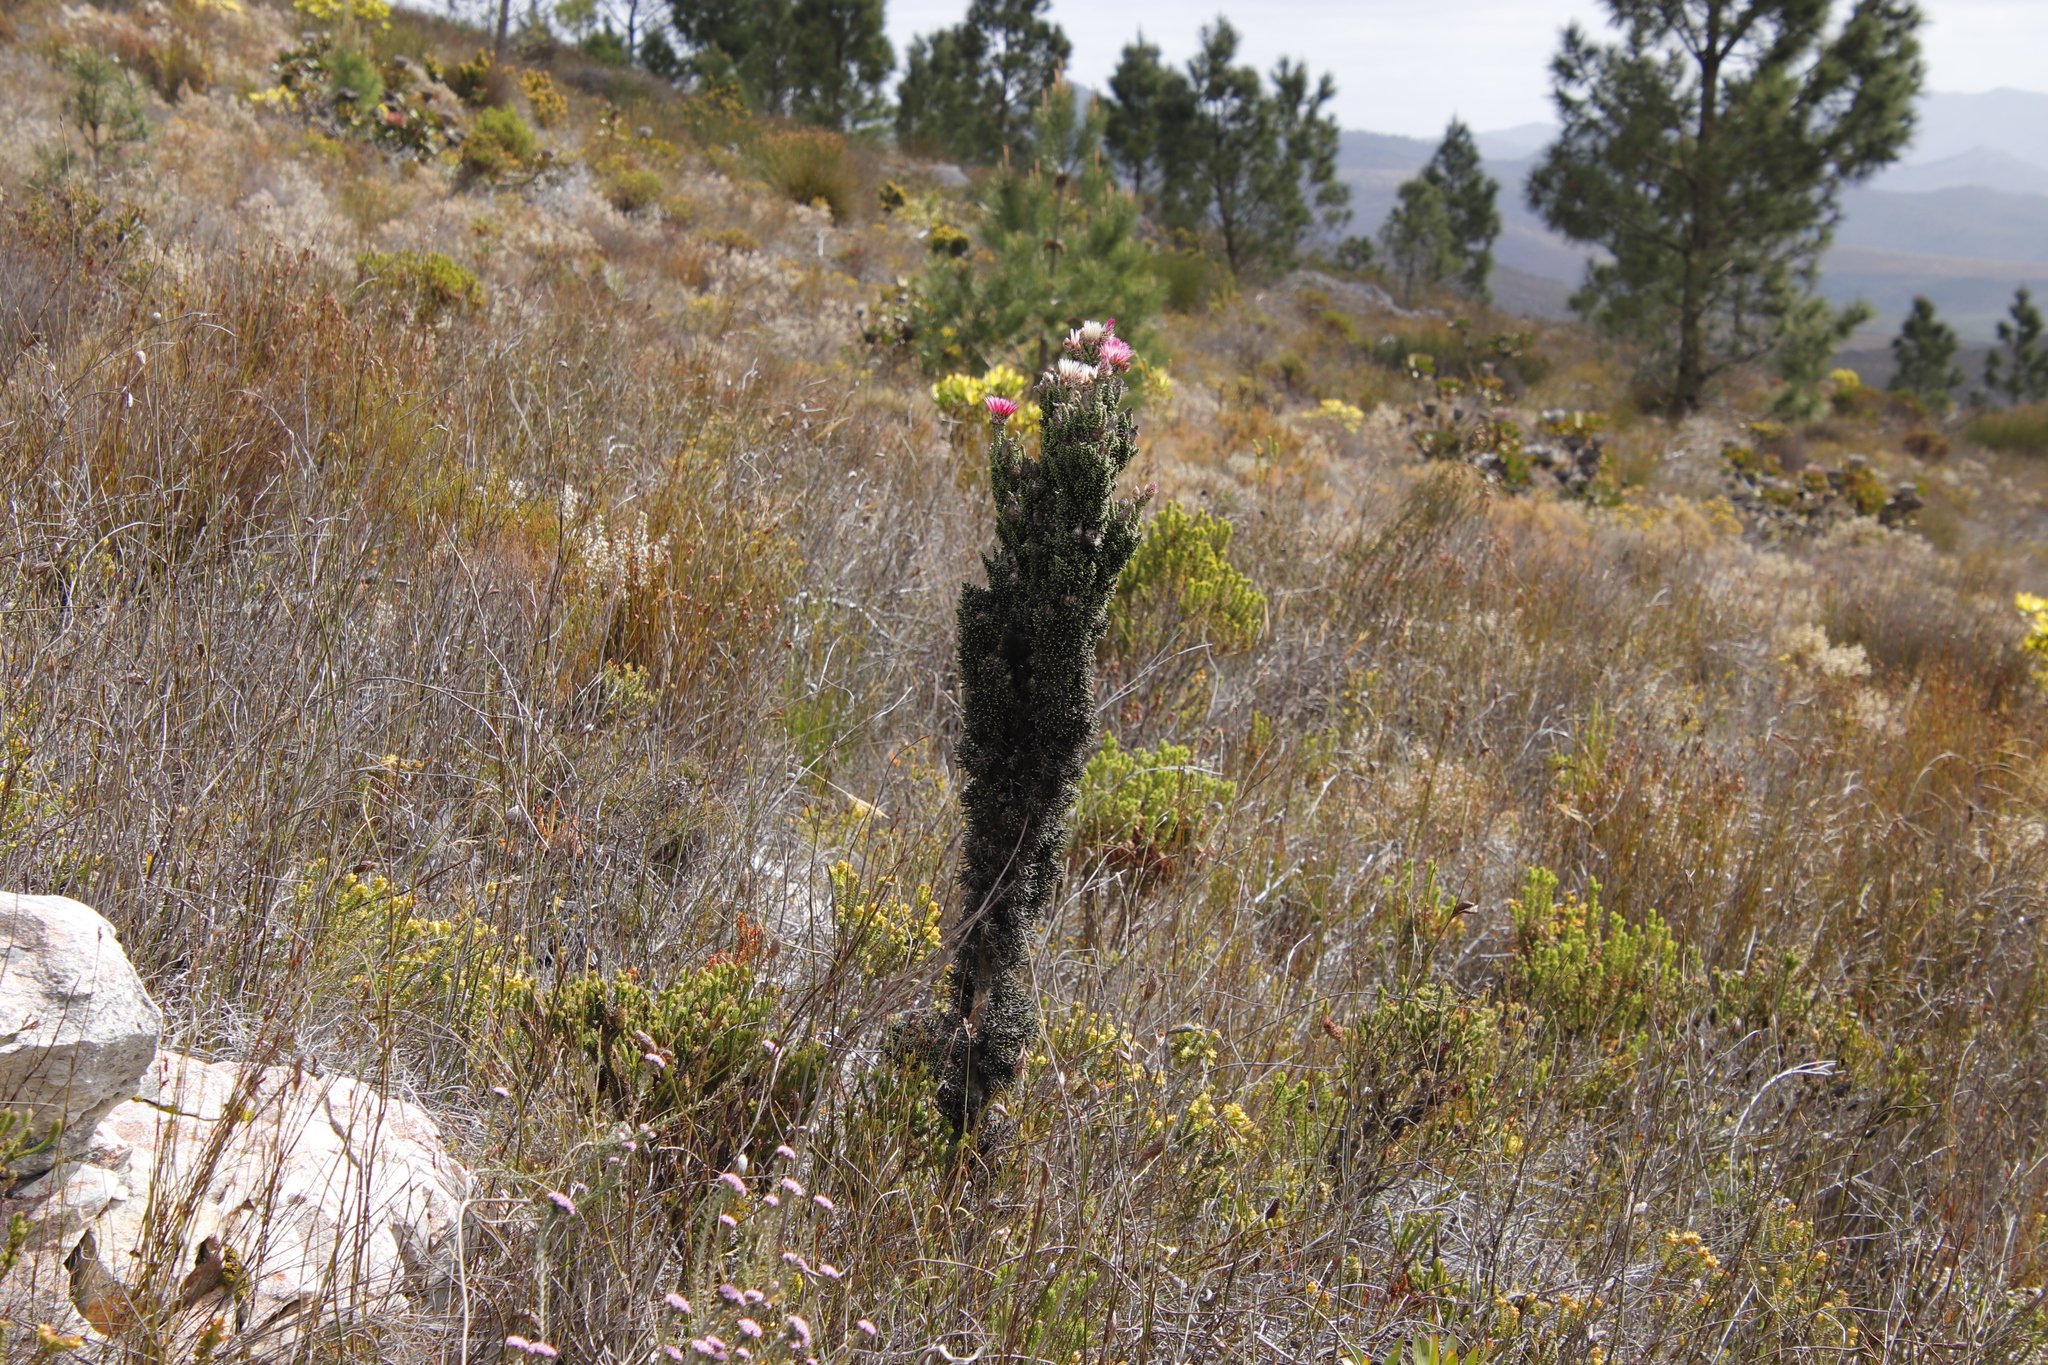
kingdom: Plantae
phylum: Tracheophyta
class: Magnoliopsida
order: Asterales
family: Asteraceae
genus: Phaenocoma
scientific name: Phaenocoma prolifera
